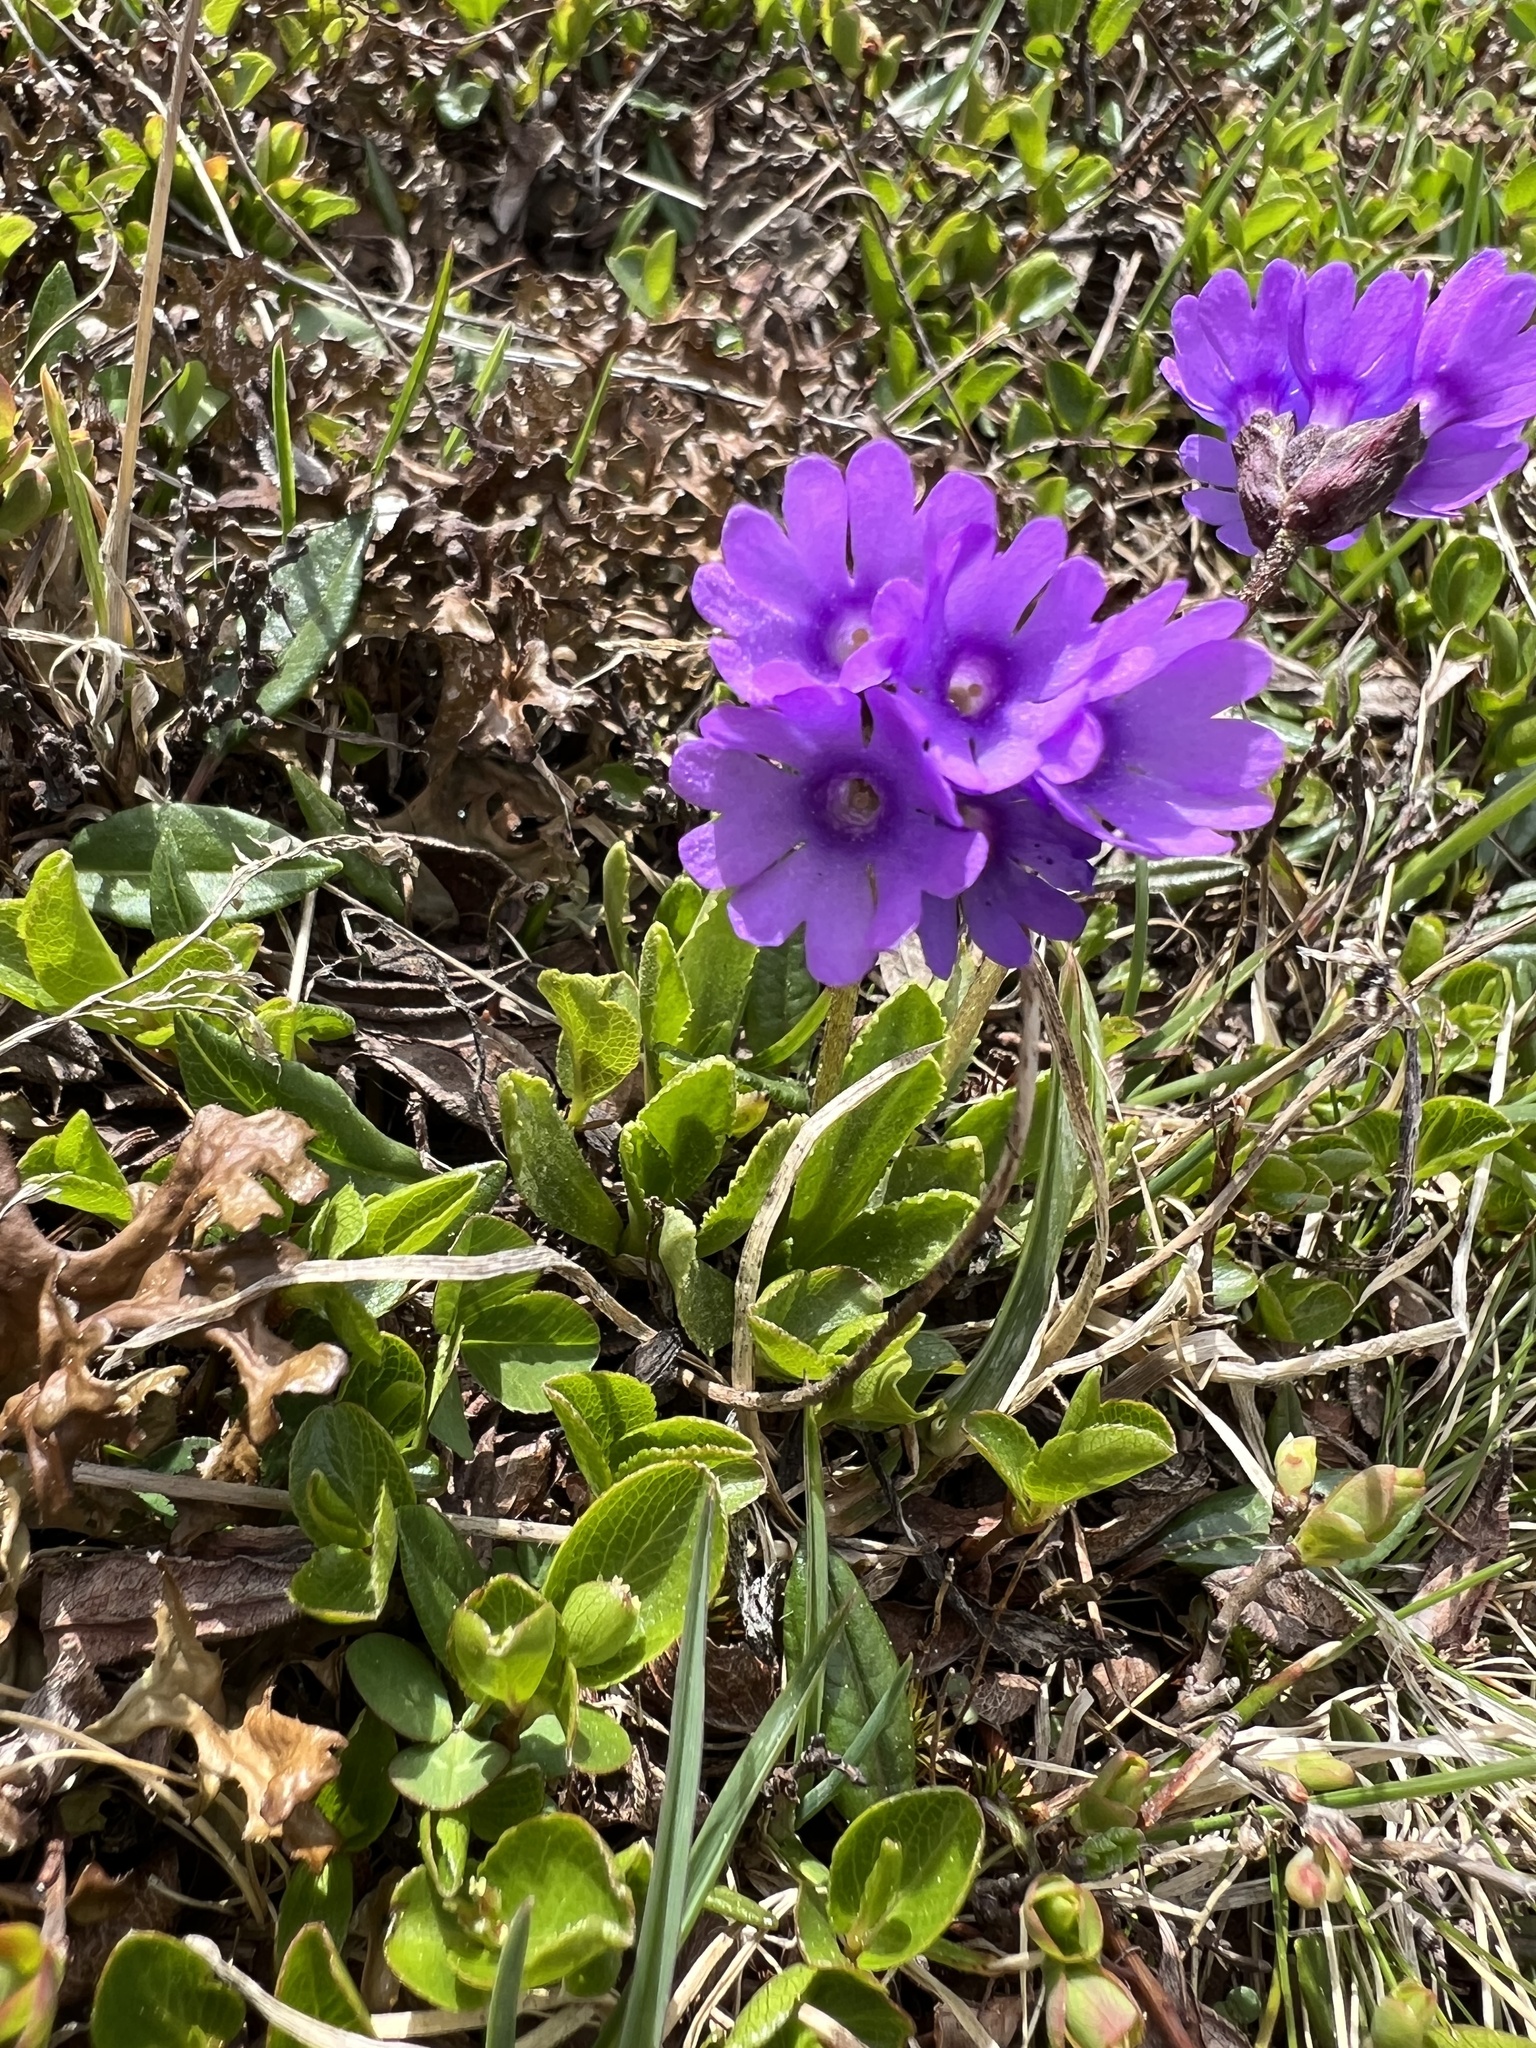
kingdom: Plantae
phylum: Tracheophyta
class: Magnoliopsida
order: Ericales
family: Primulaceae
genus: Primula
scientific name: Primula glutinosa
